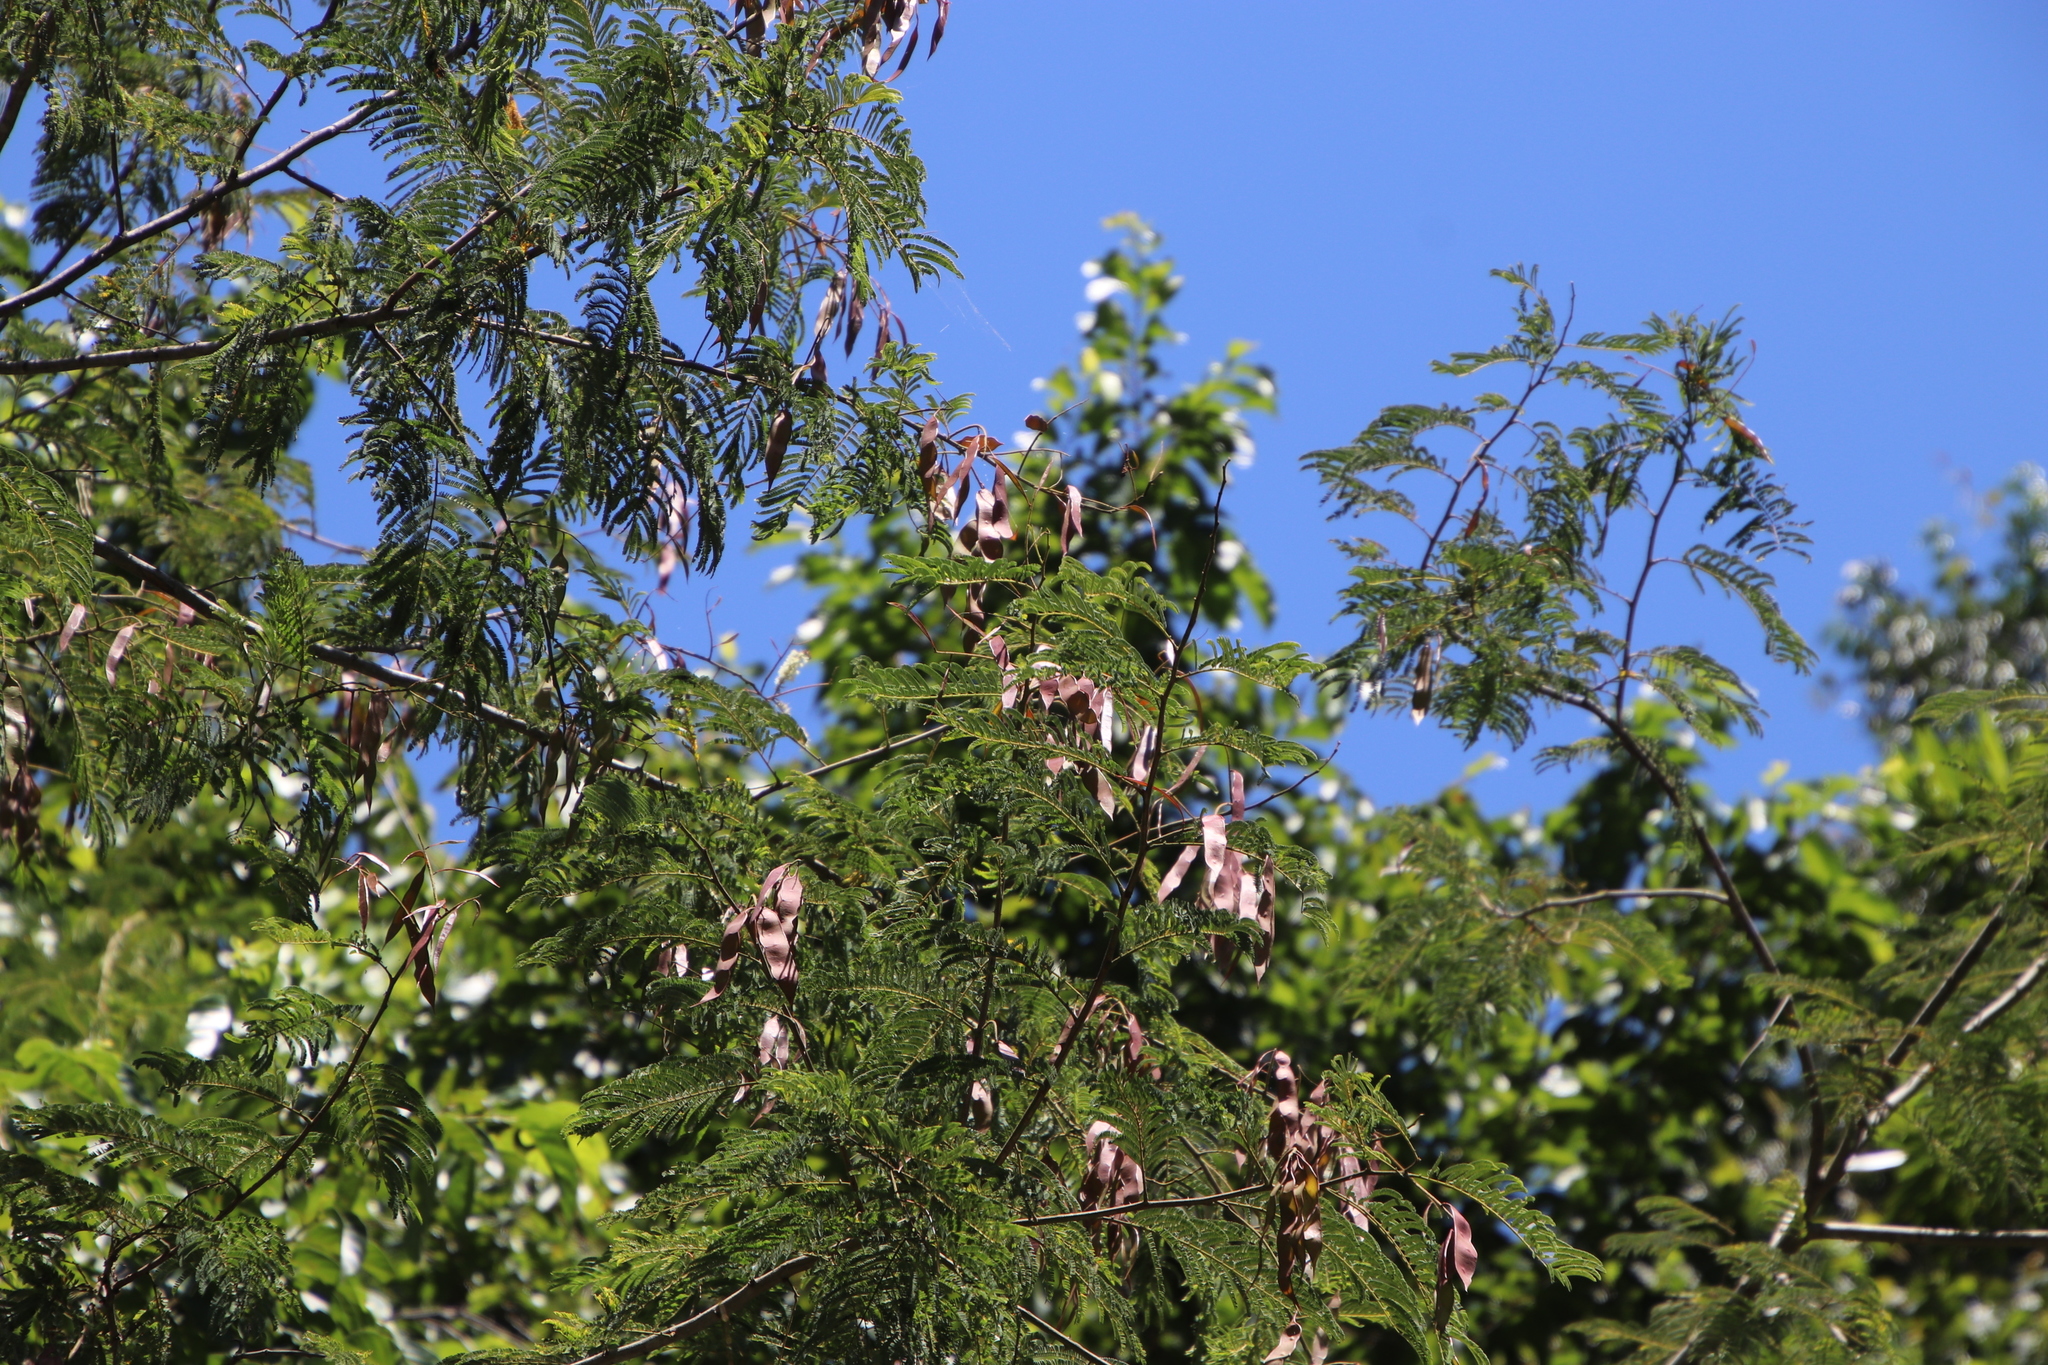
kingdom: Plantae
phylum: Tracheophyta
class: Magnoliopsida
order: Fabales
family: Fabaceae
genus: Senegalia
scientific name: Senegalia ataxacantha
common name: Flame acacia
